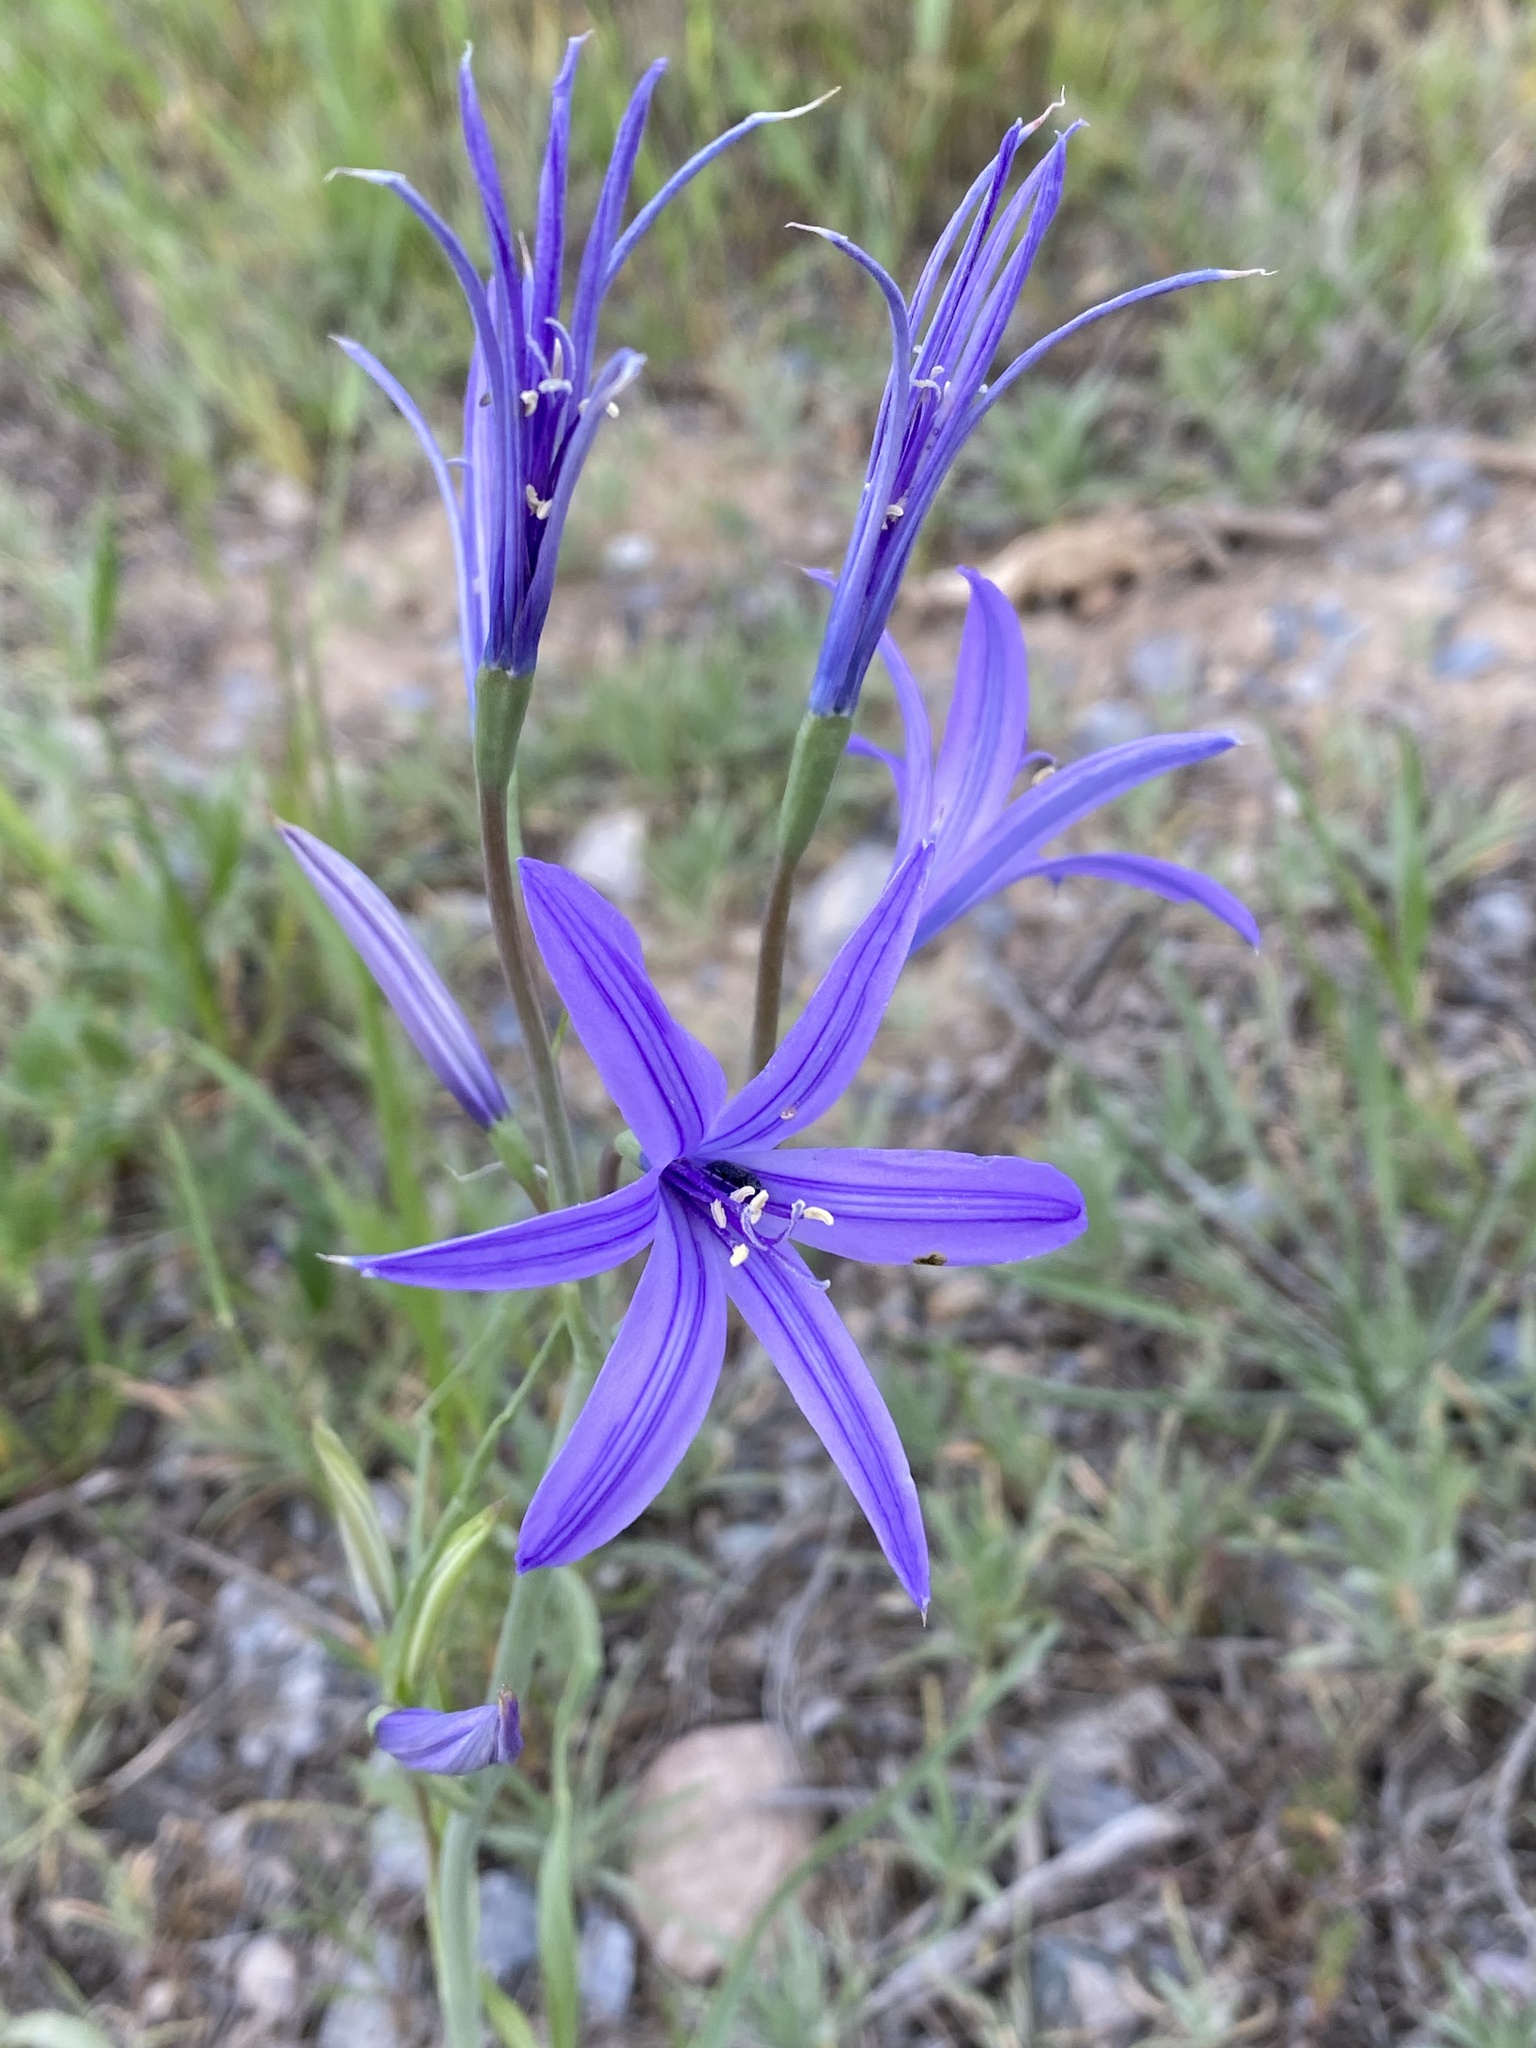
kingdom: Plantae
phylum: Tracheophyta
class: Liliopsida
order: Asparagales
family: Ixioliriaceae
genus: Ixiolirion
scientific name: Ixiolirion tataricum
